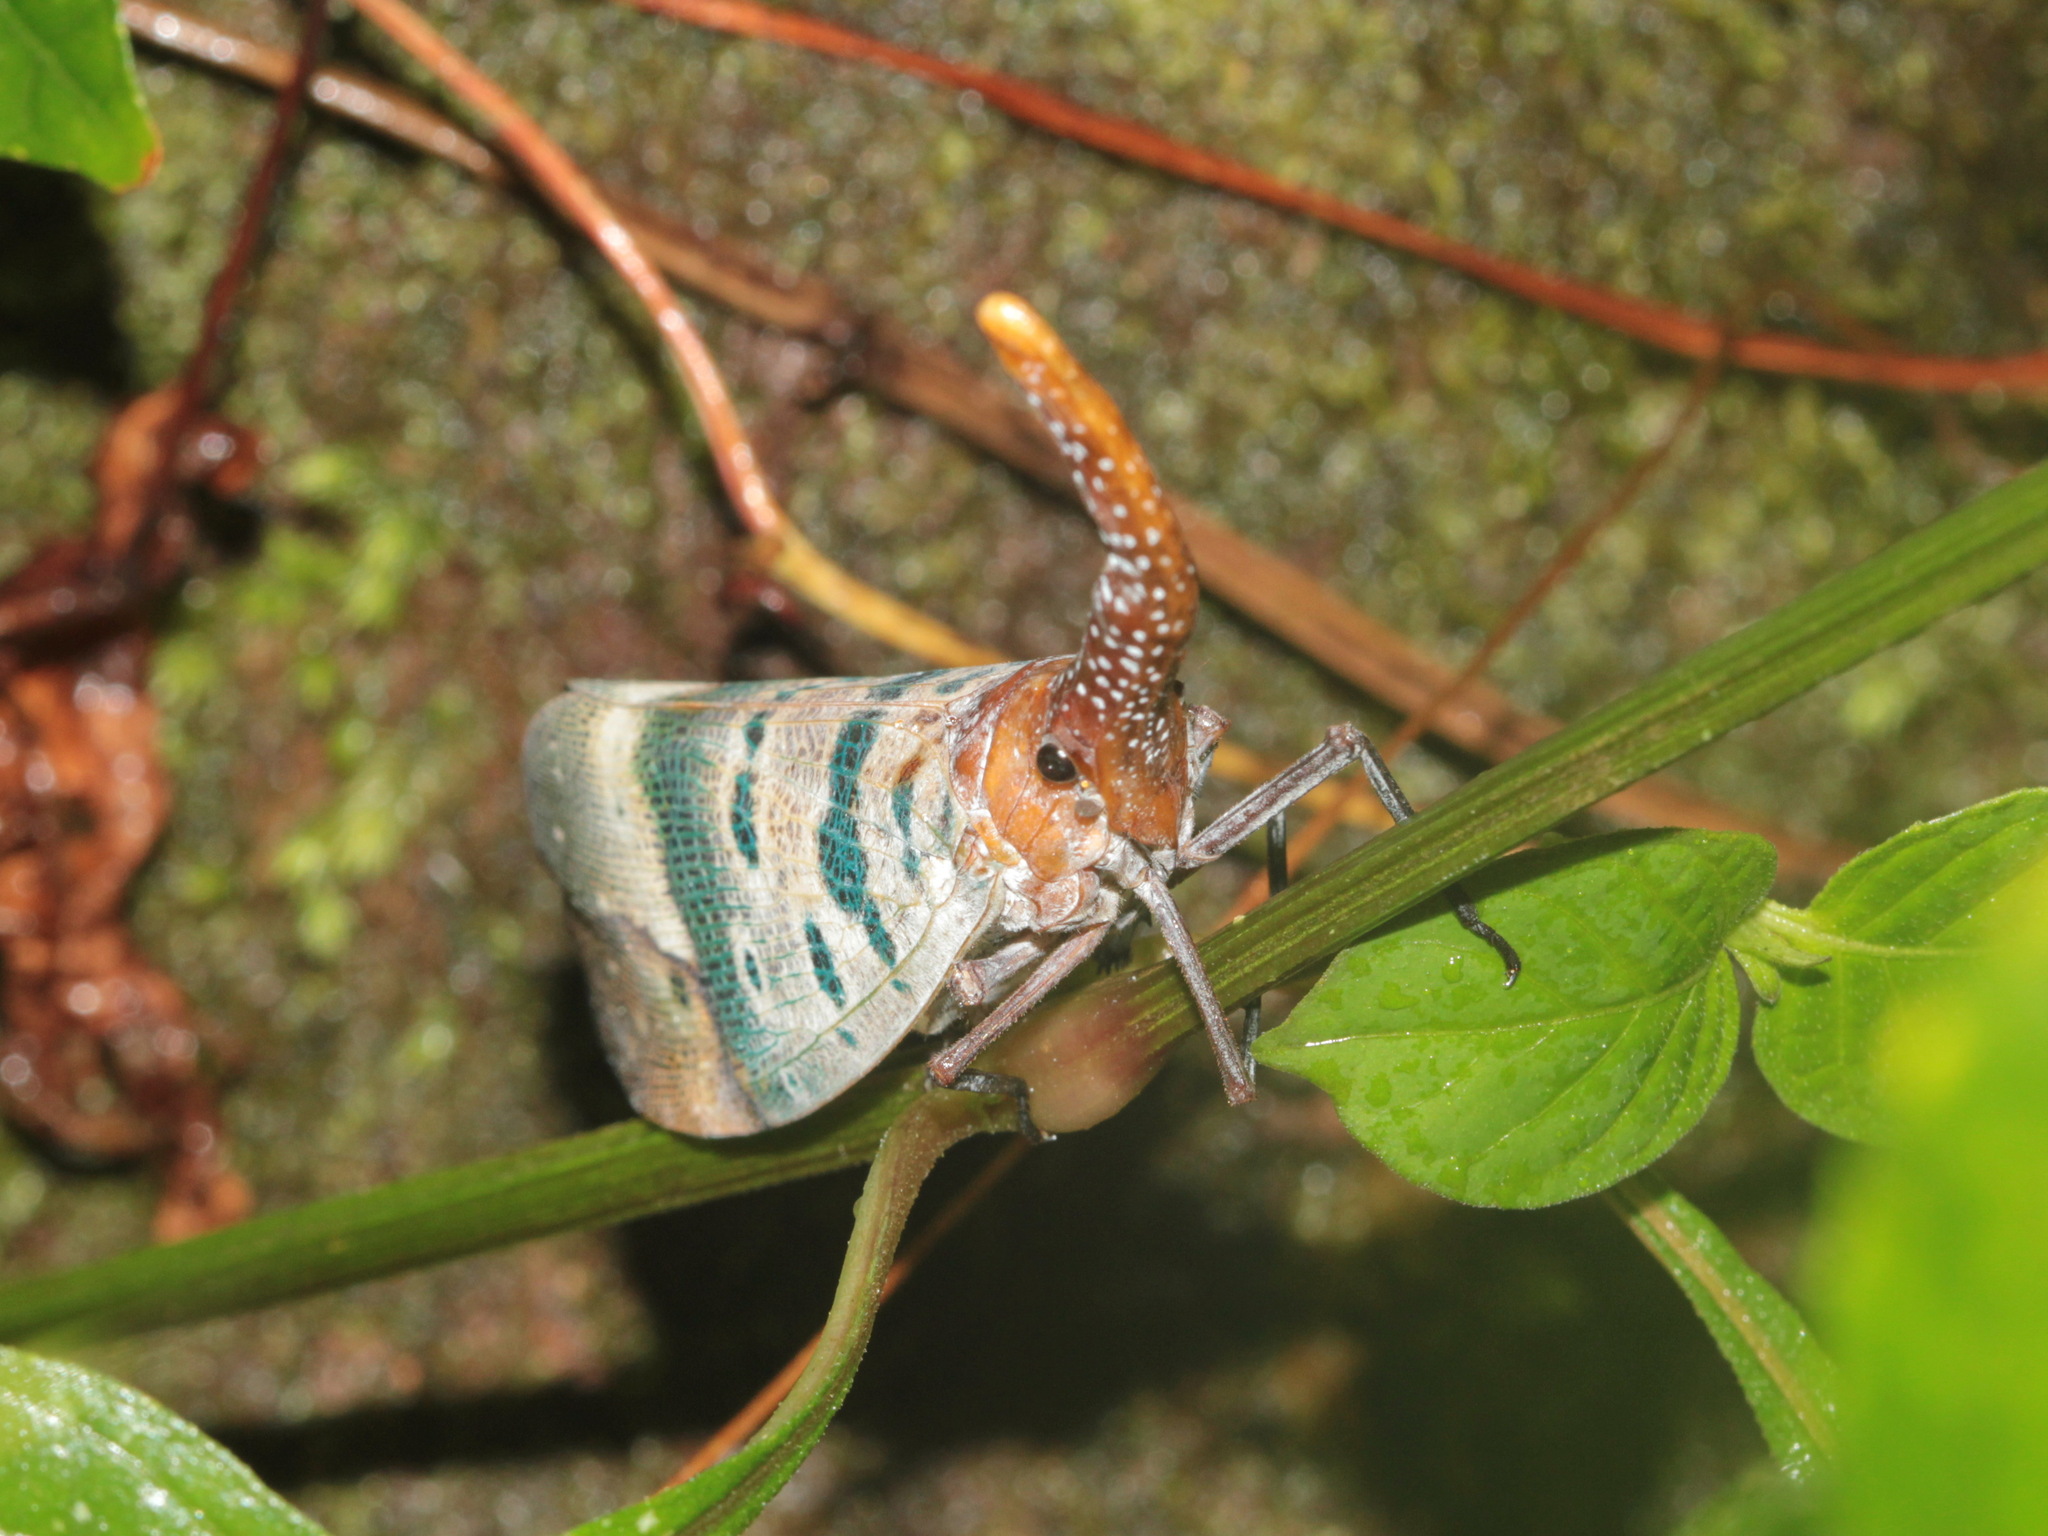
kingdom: Animalia
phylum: Arthropoda
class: Insecta
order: Hemiptera
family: Fulgoridae
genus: Pyrops
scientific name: Pyrops ducalis
